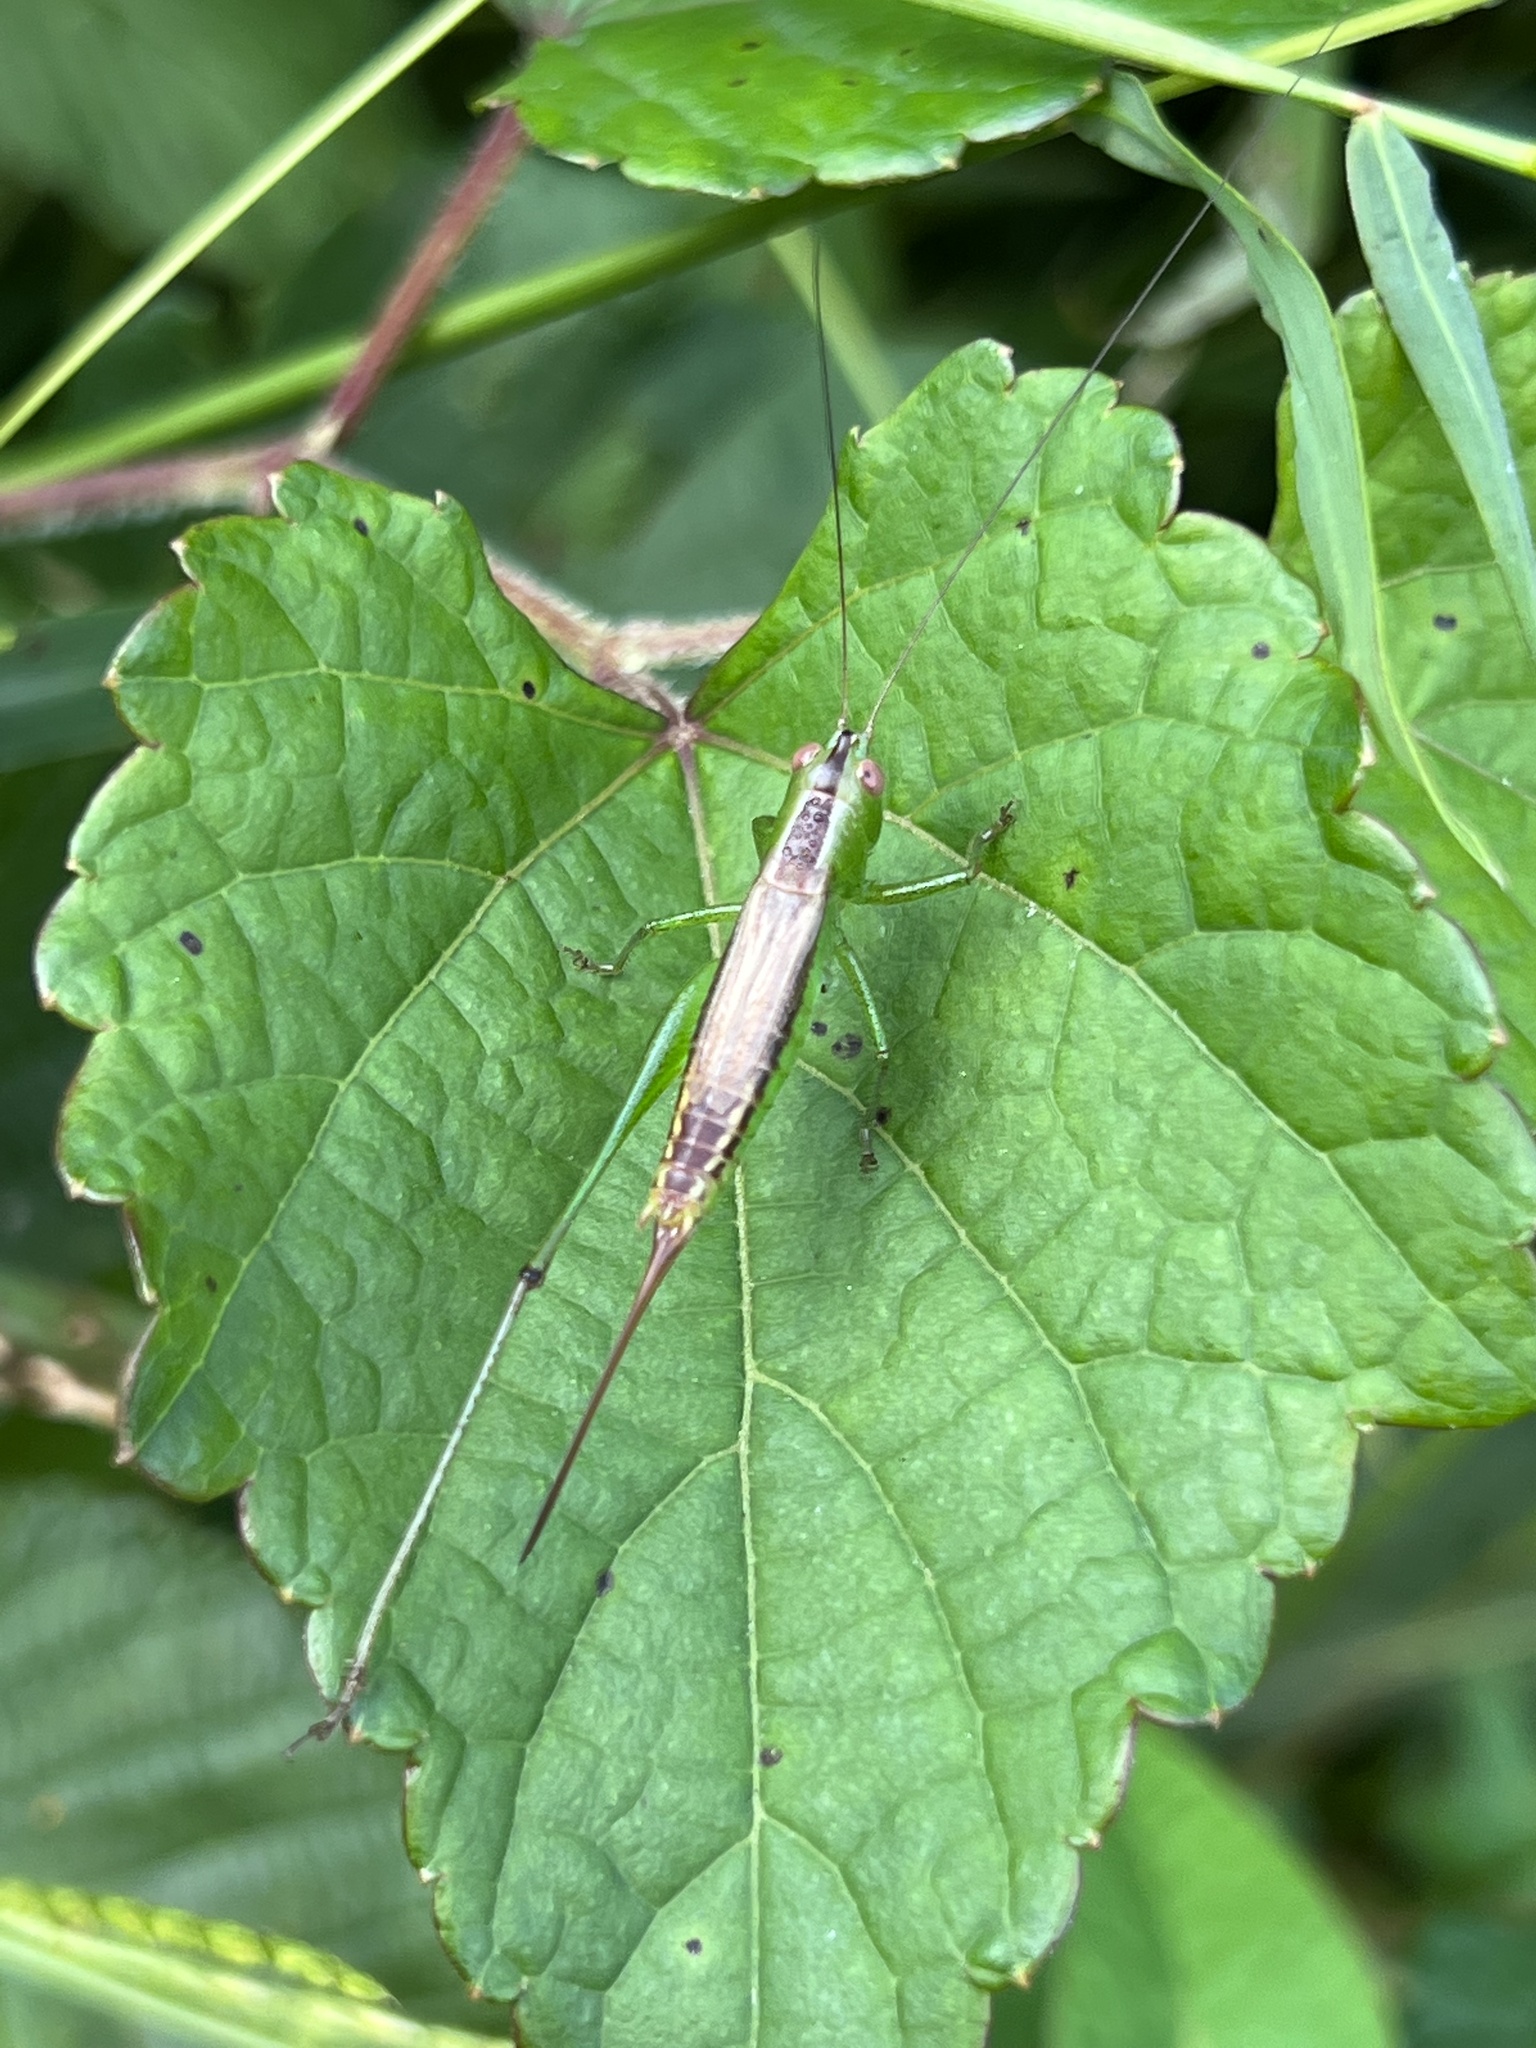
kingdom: Animalia
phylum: Arthropoda
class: Insecta
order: Orthoptera
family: Tettigoniidae
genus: Conocephalus
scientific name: Conocephalus brevipennis
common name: Short-winged meadow katydid
